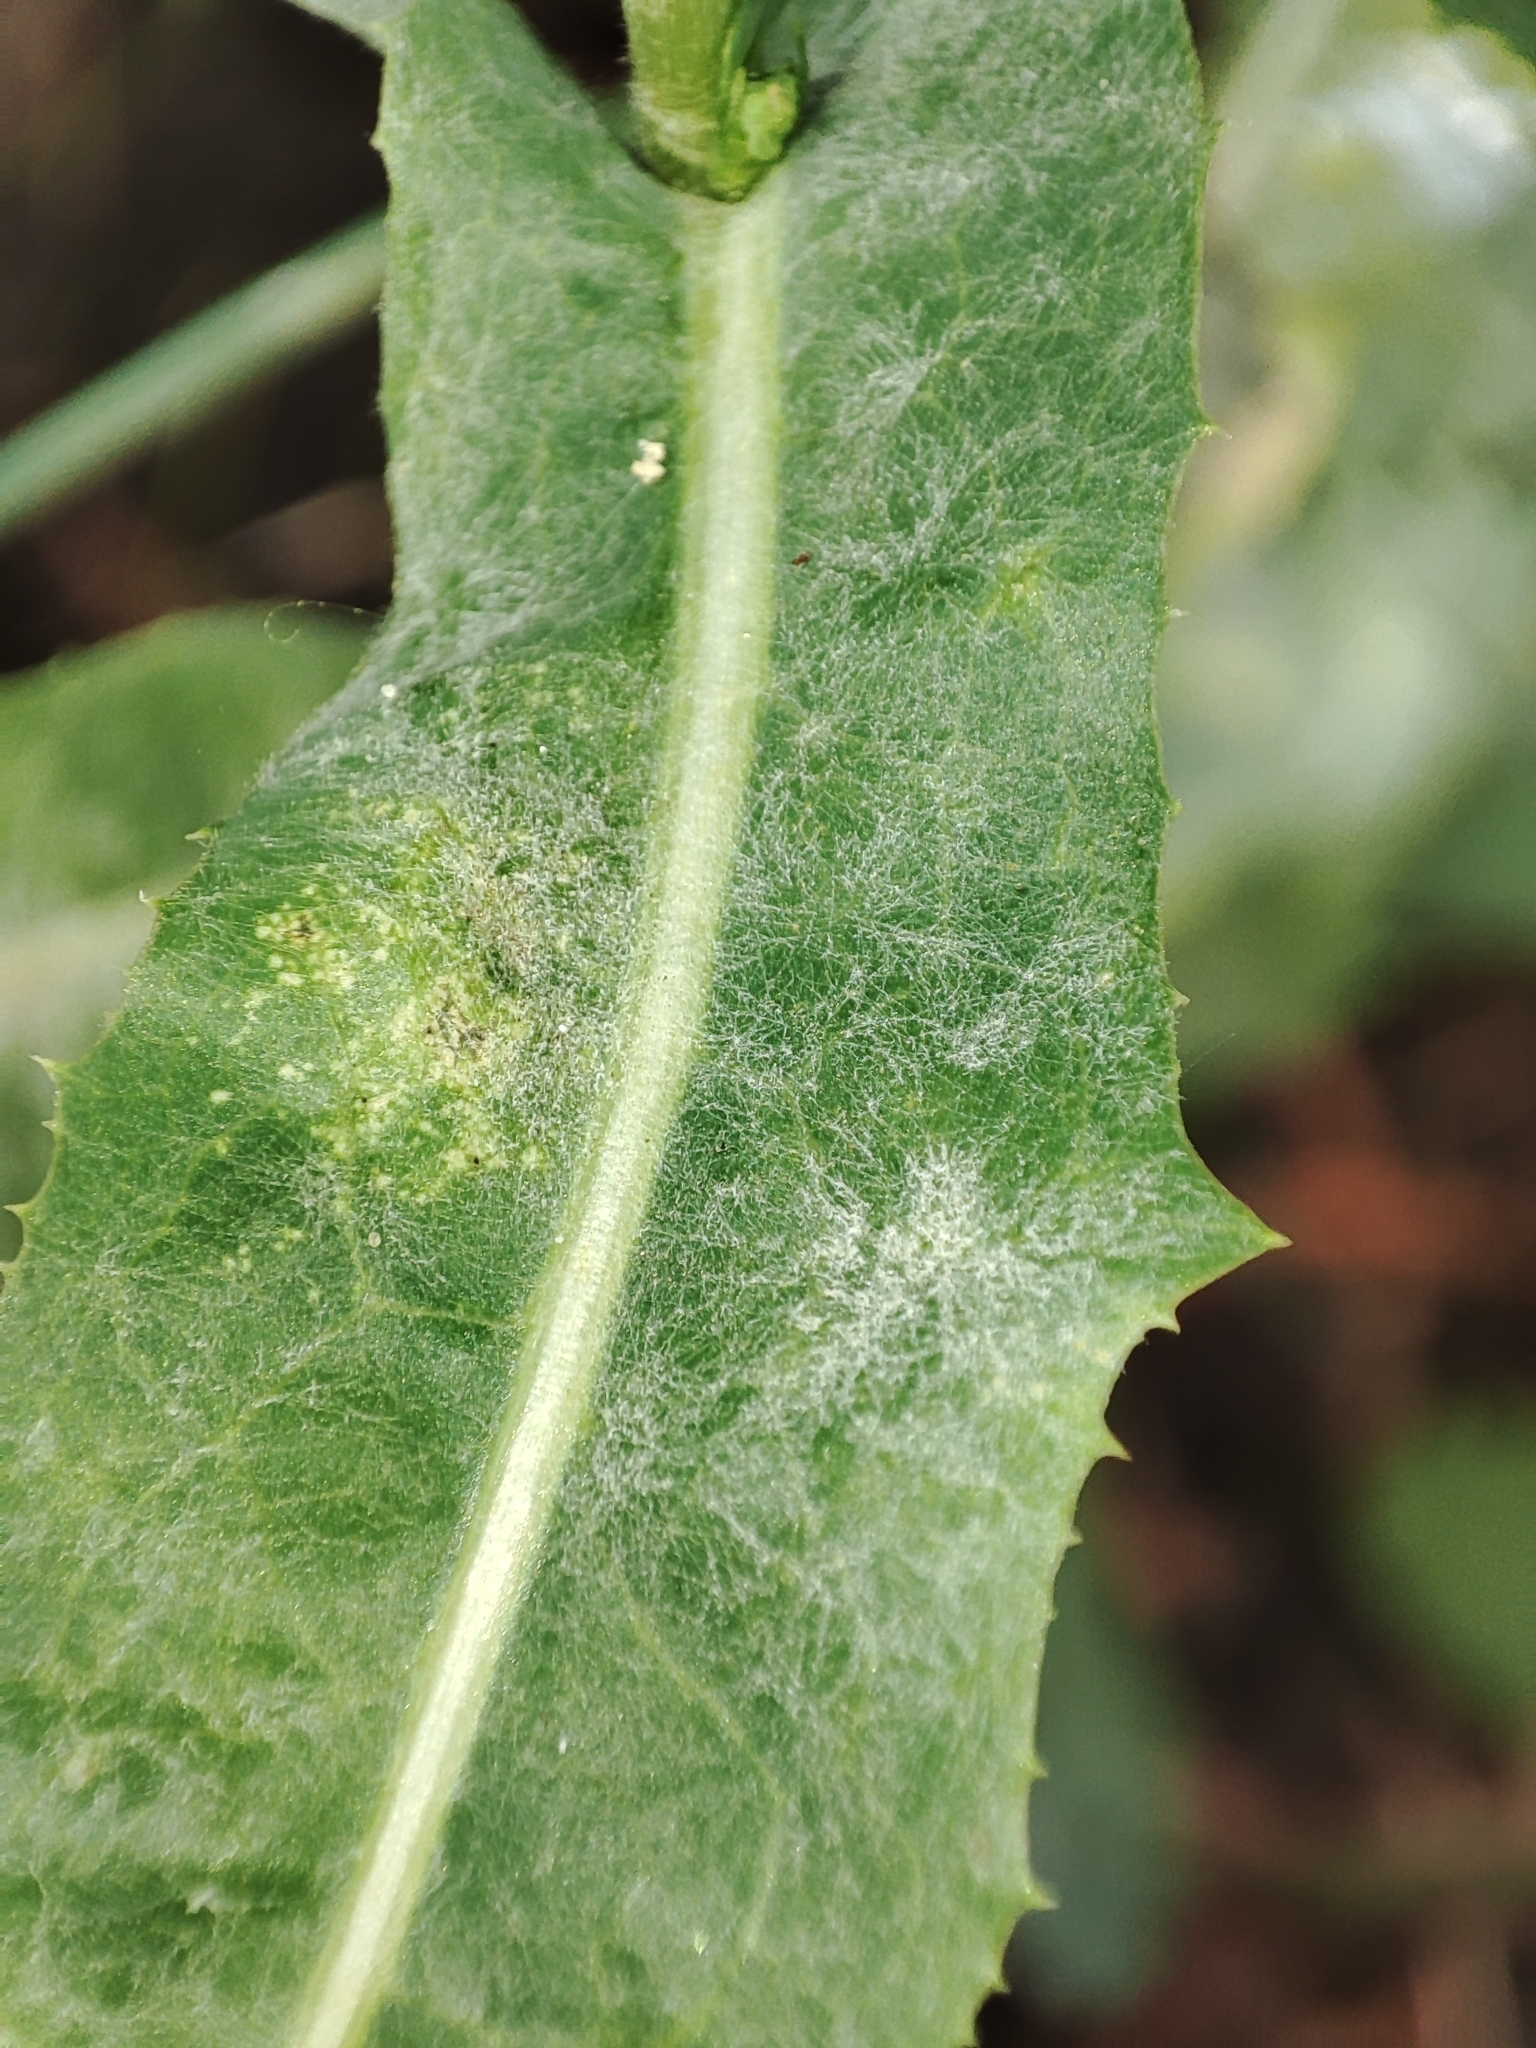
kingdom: Plantae
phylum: Tracheophyta
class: Magnoliopsida
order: Asterales
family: Asteraceae
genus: Lactuca
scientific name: Lactuca serriola
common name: Prickly lettuce
